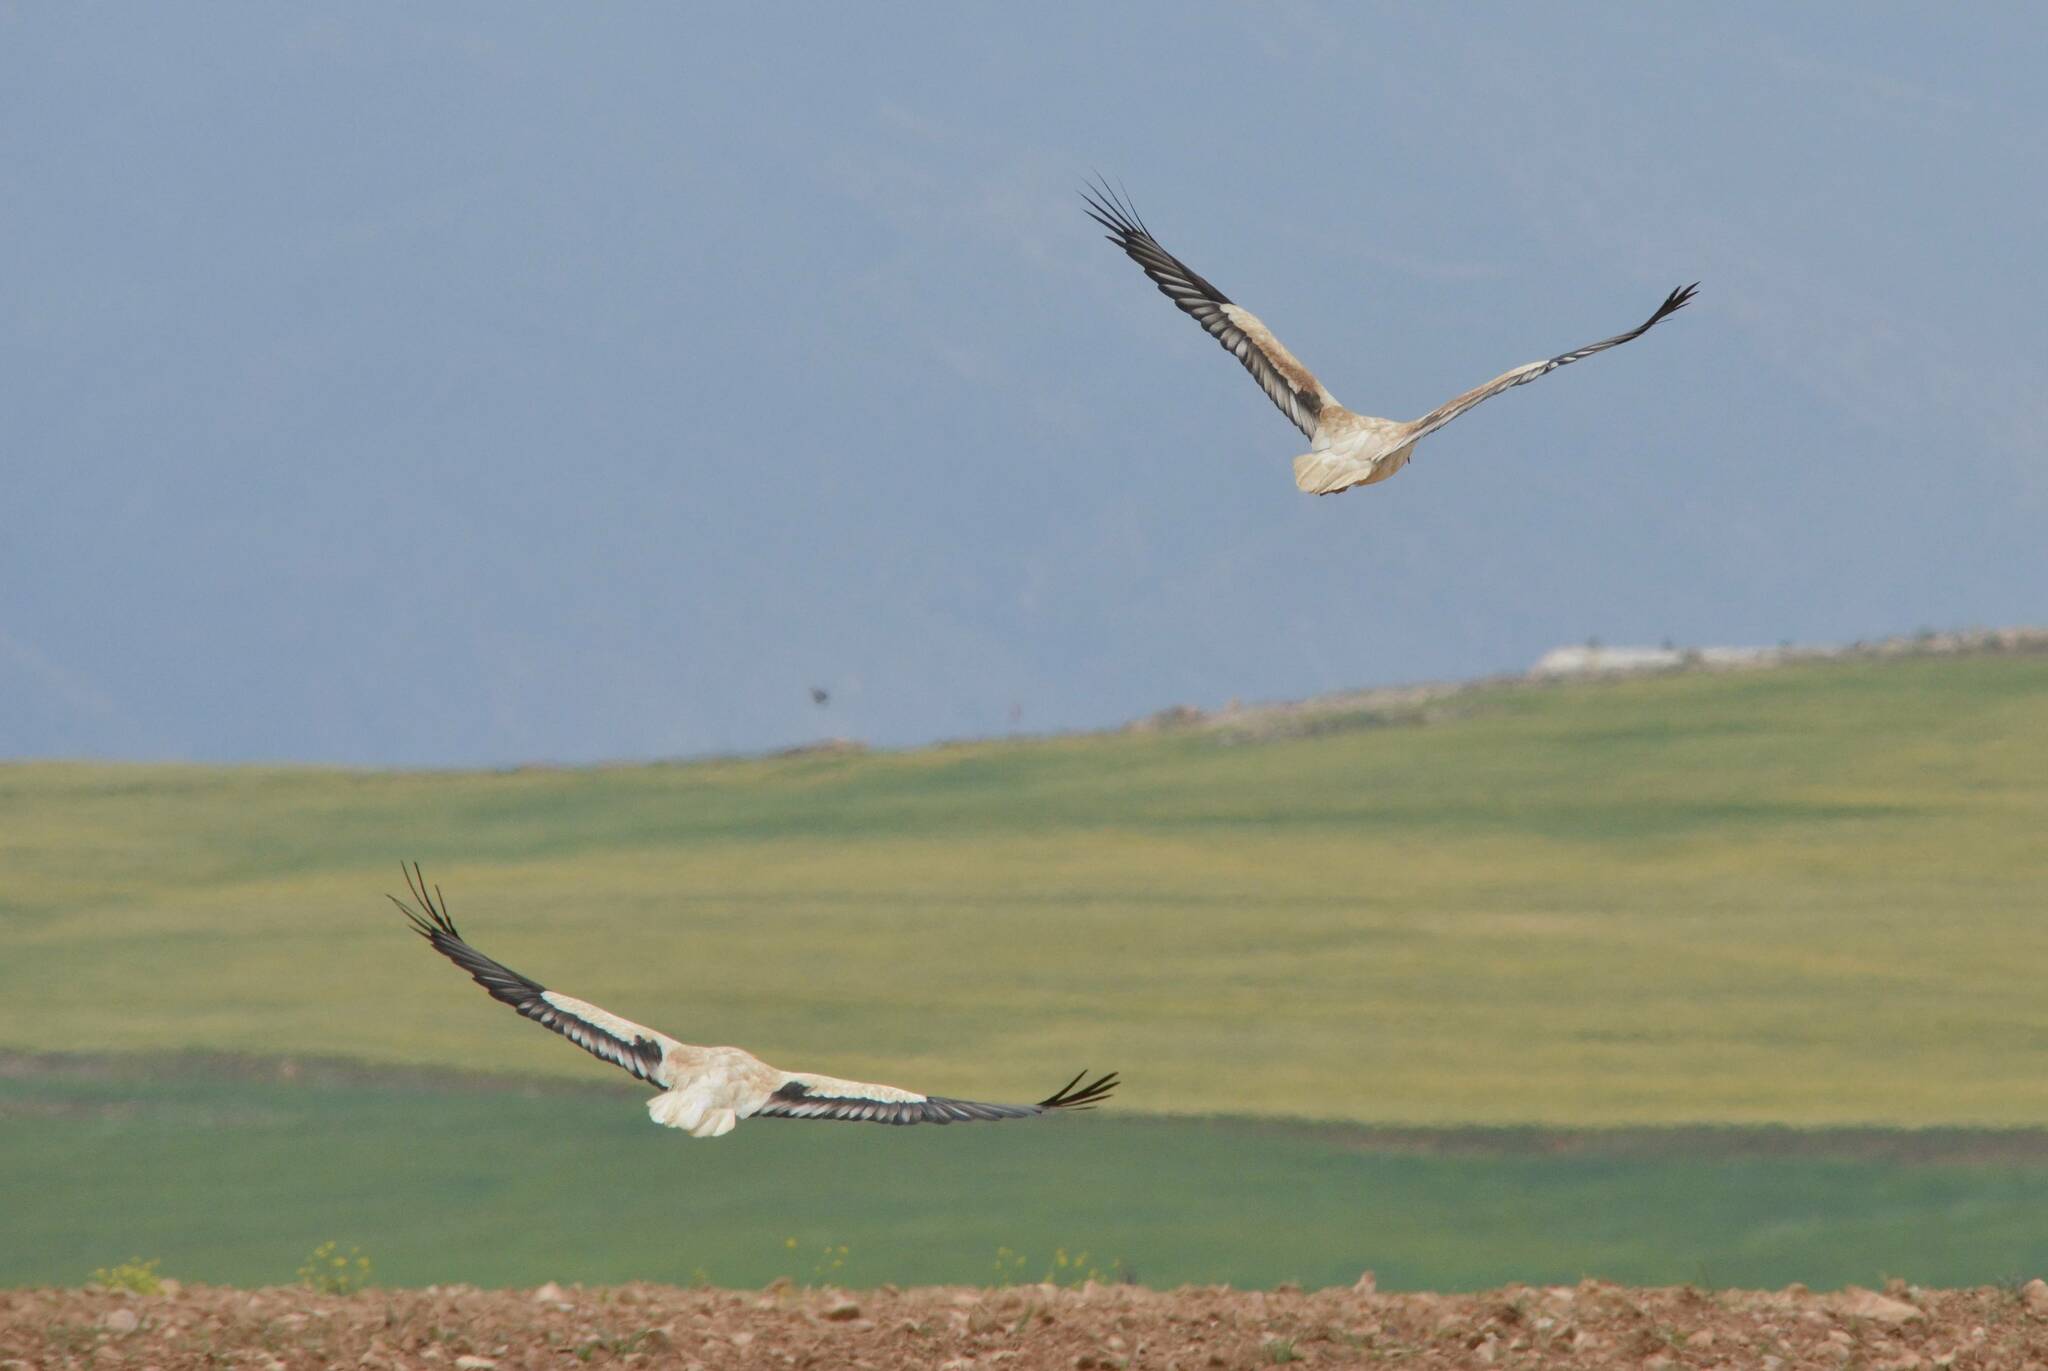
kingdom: Animalia
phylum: Chordata
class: Aves
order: Accipitriformes
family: Accipitridae
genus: Neophron
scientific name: Neophron percnopterus
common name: Egyptian vulture
